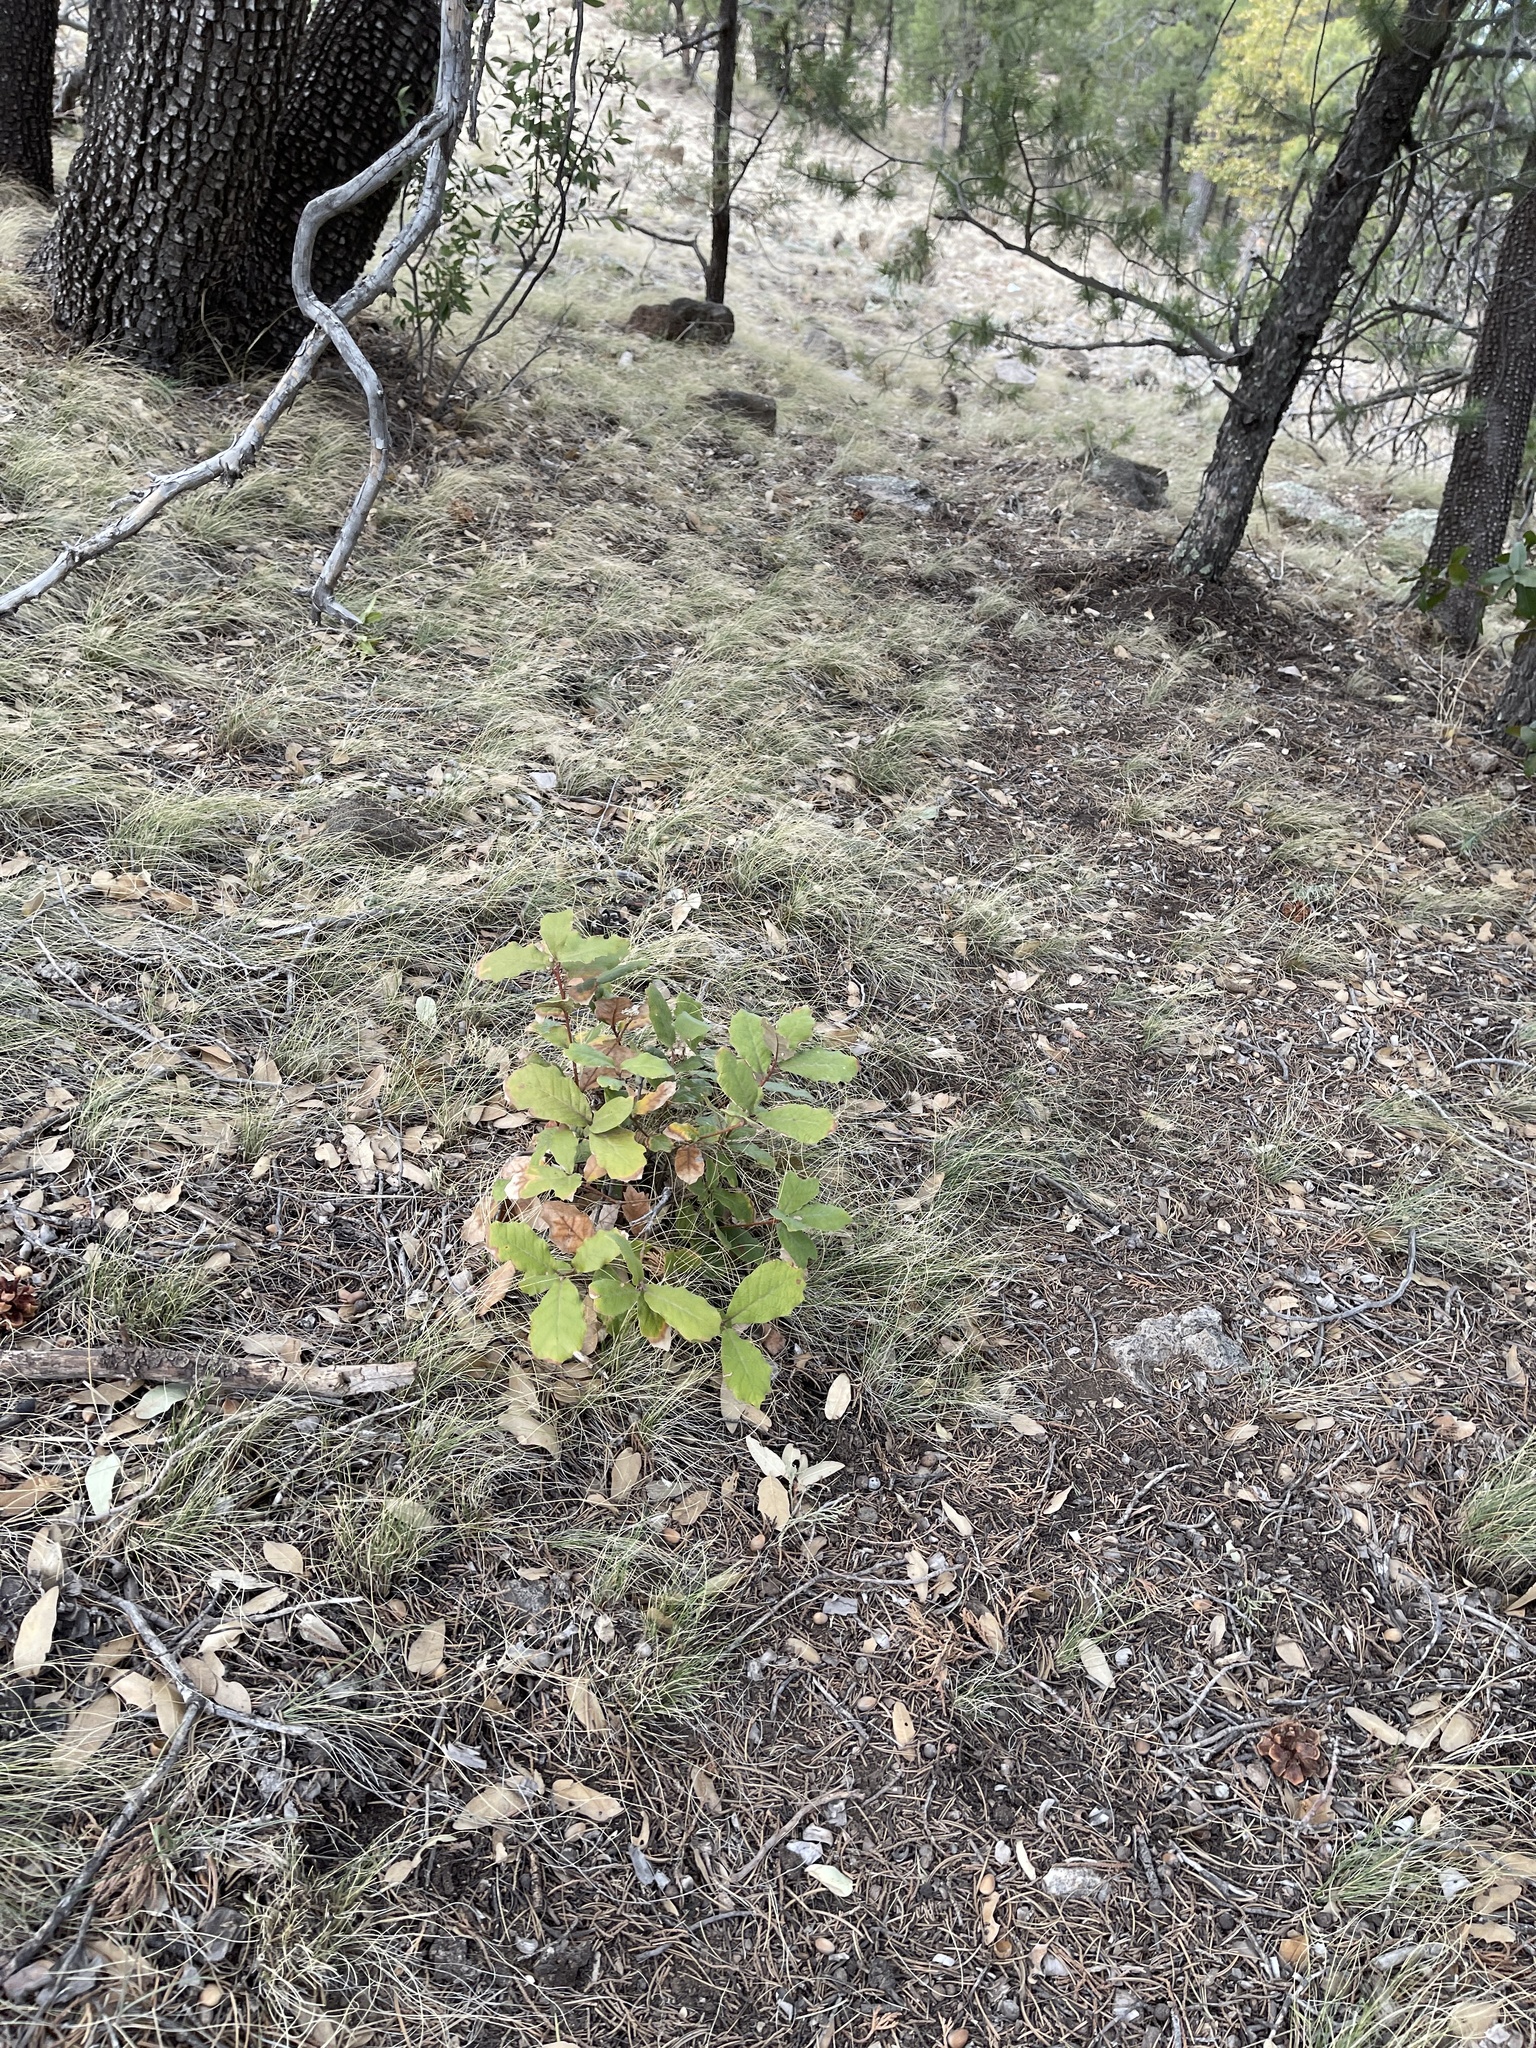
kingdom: Plantae
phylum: Tracheophyta
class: Magnoliopsida
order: Fagales
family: Fagaceae
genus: Quercus
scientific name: Quercus rugosa
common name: Netleaf oak
